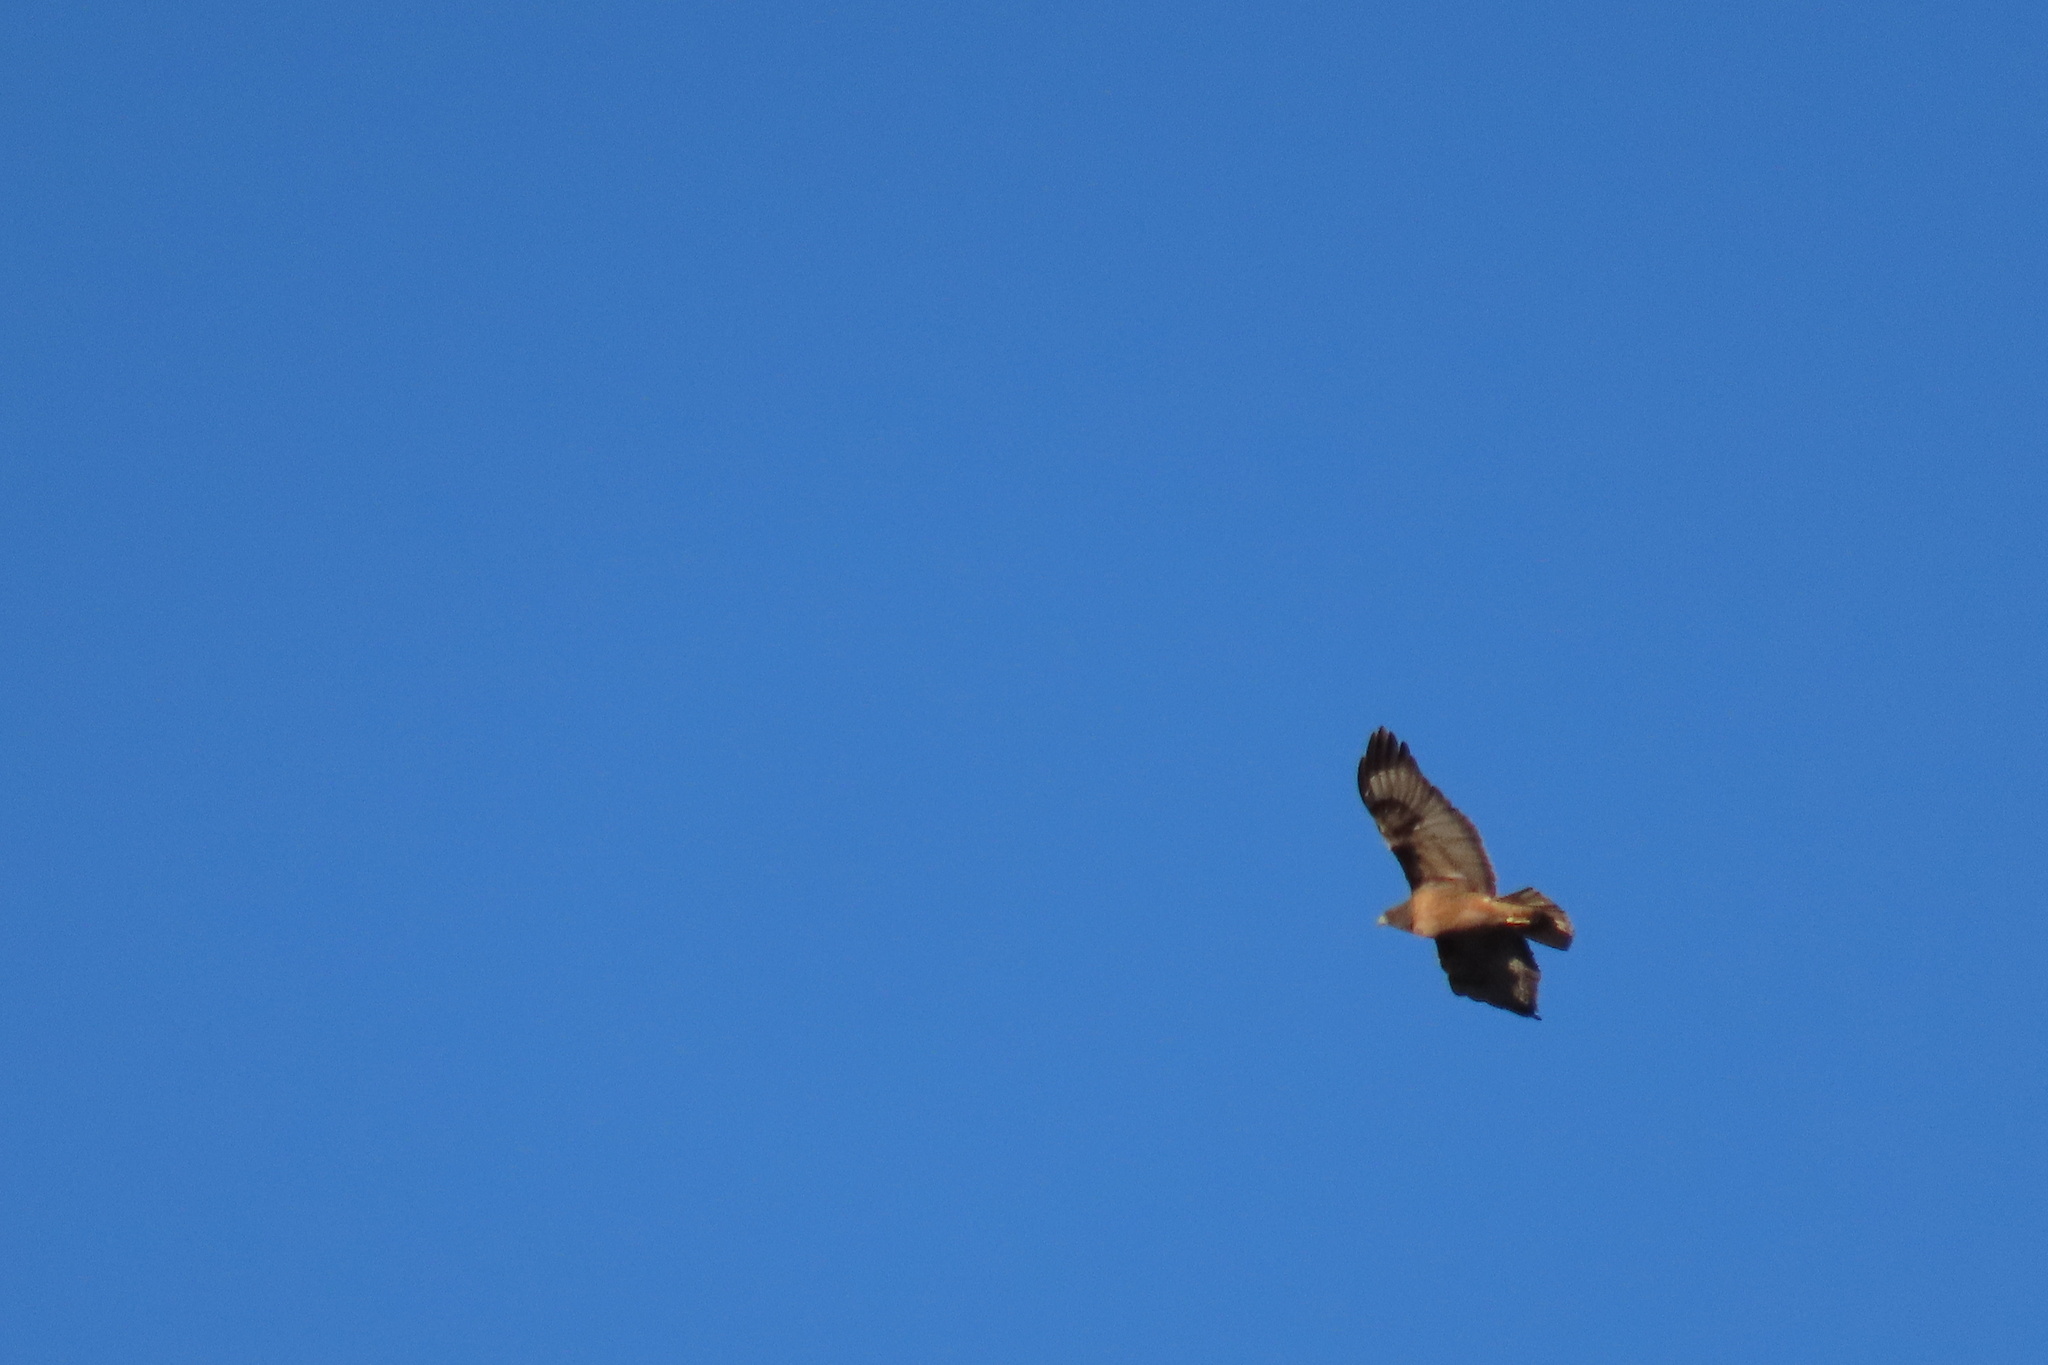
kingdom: Animalia
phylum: Chordata
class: Aves
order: Accipitriformes
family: Accipitridae
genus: Buteo
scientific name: Buteo jamaicensis
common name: Red-tailed hawk
